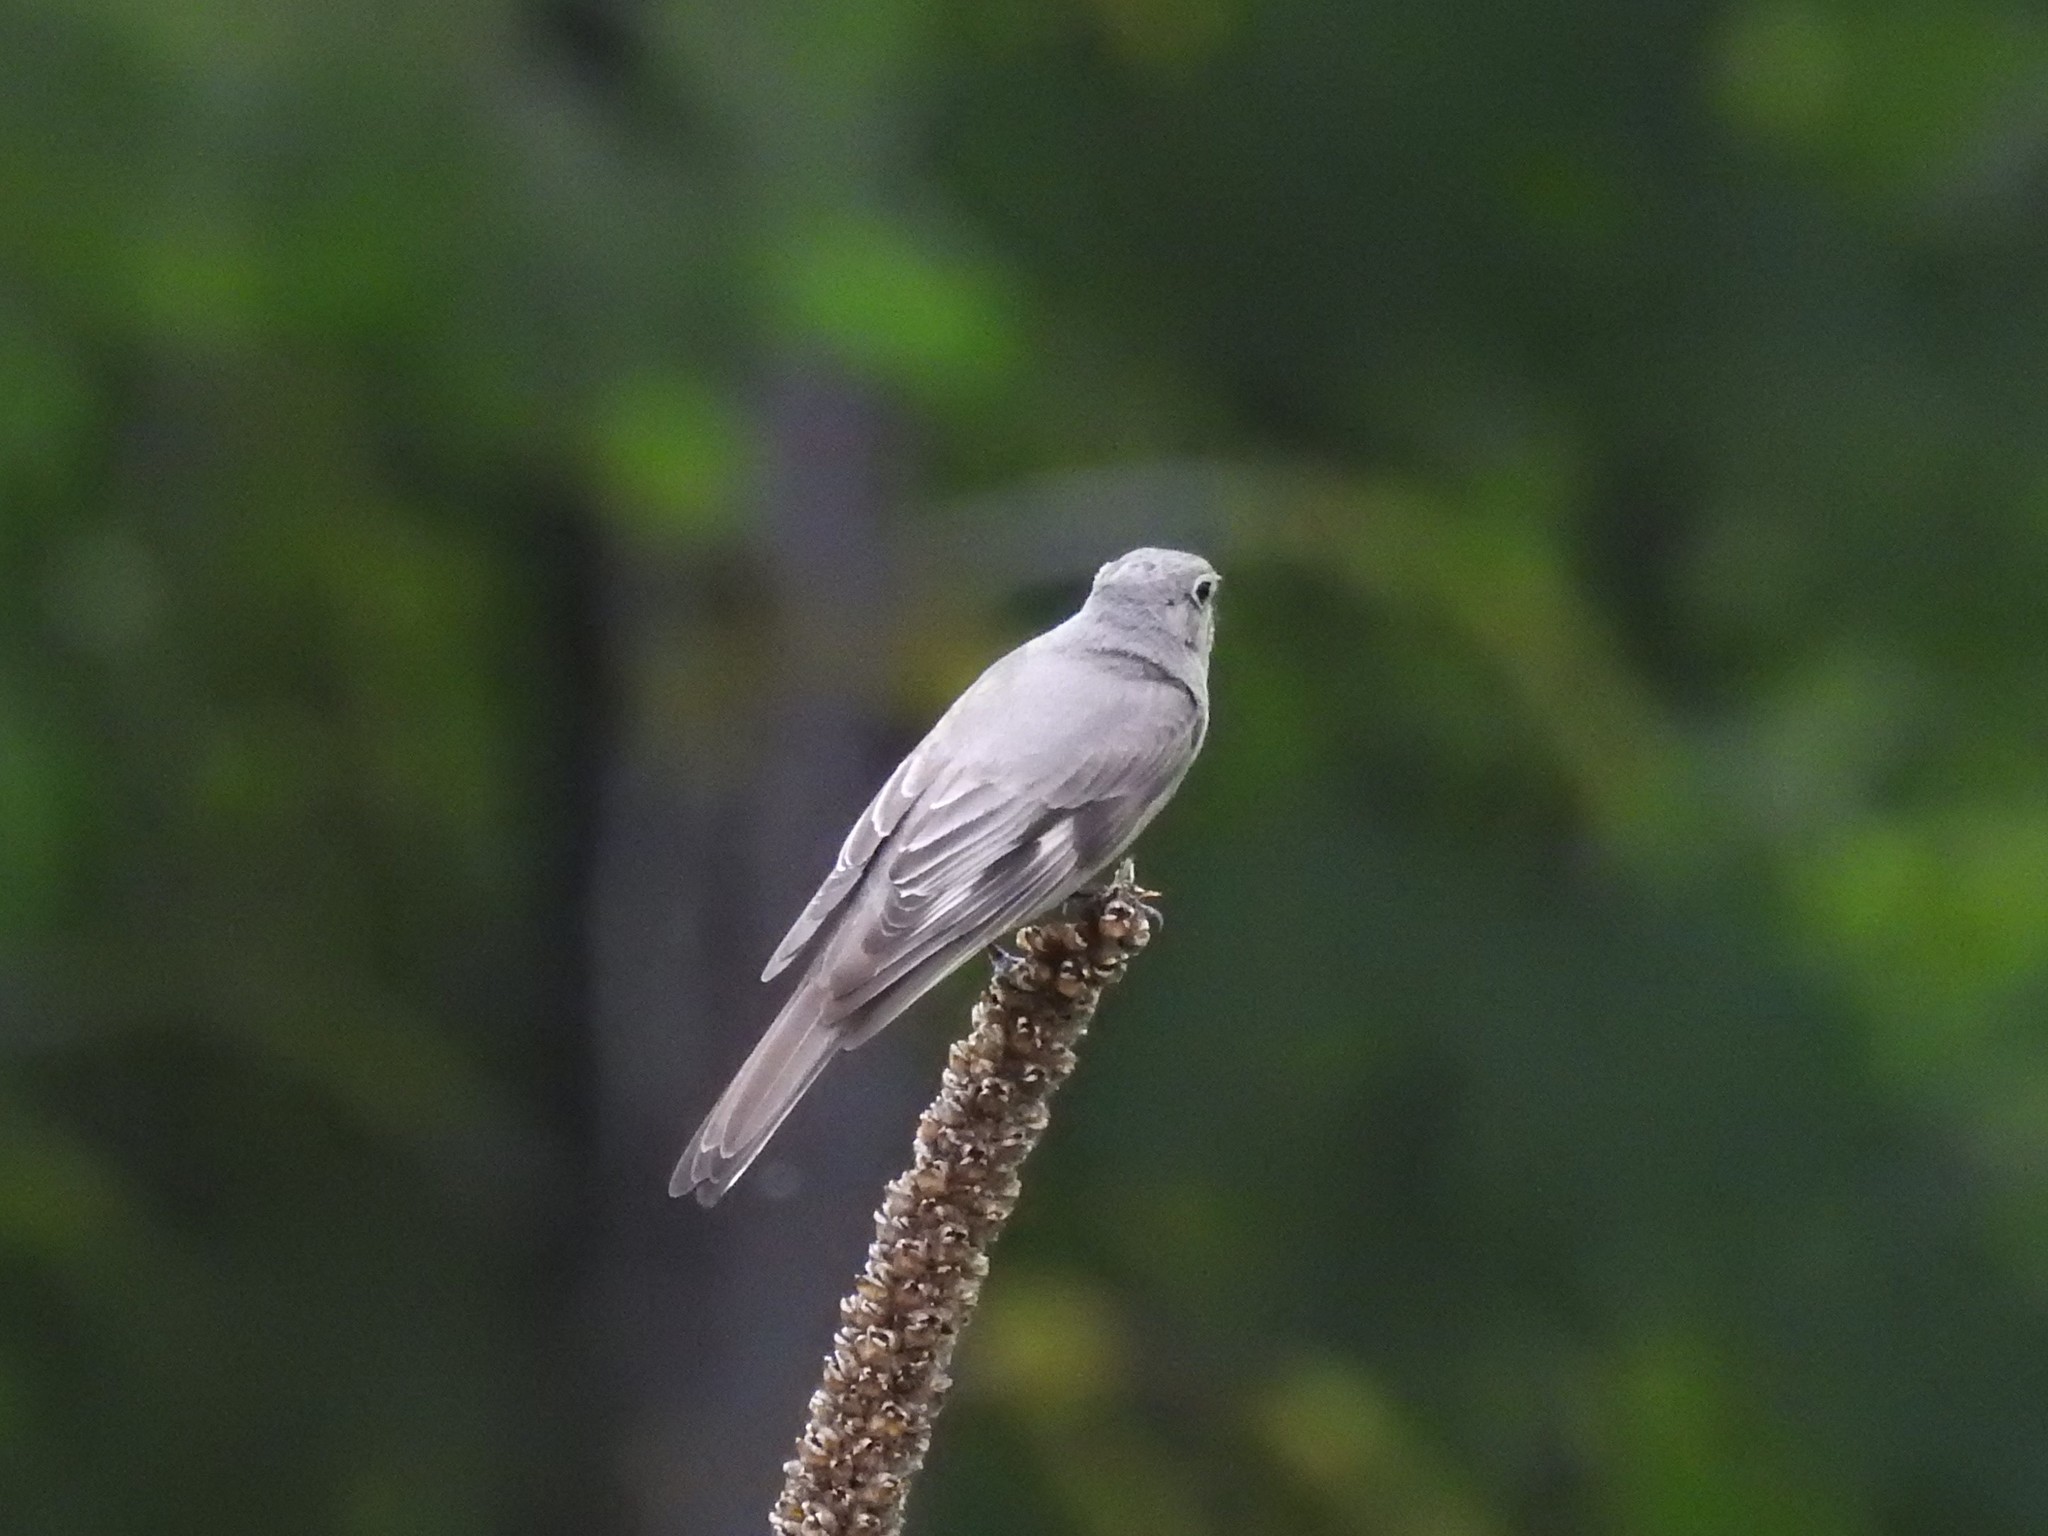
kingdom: Animalia
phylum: Chordata
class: Aves
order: Passeriformes
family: Turdidae
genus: Myadestes
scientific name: Myadestes townsendi
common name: Townsend's solitaire
